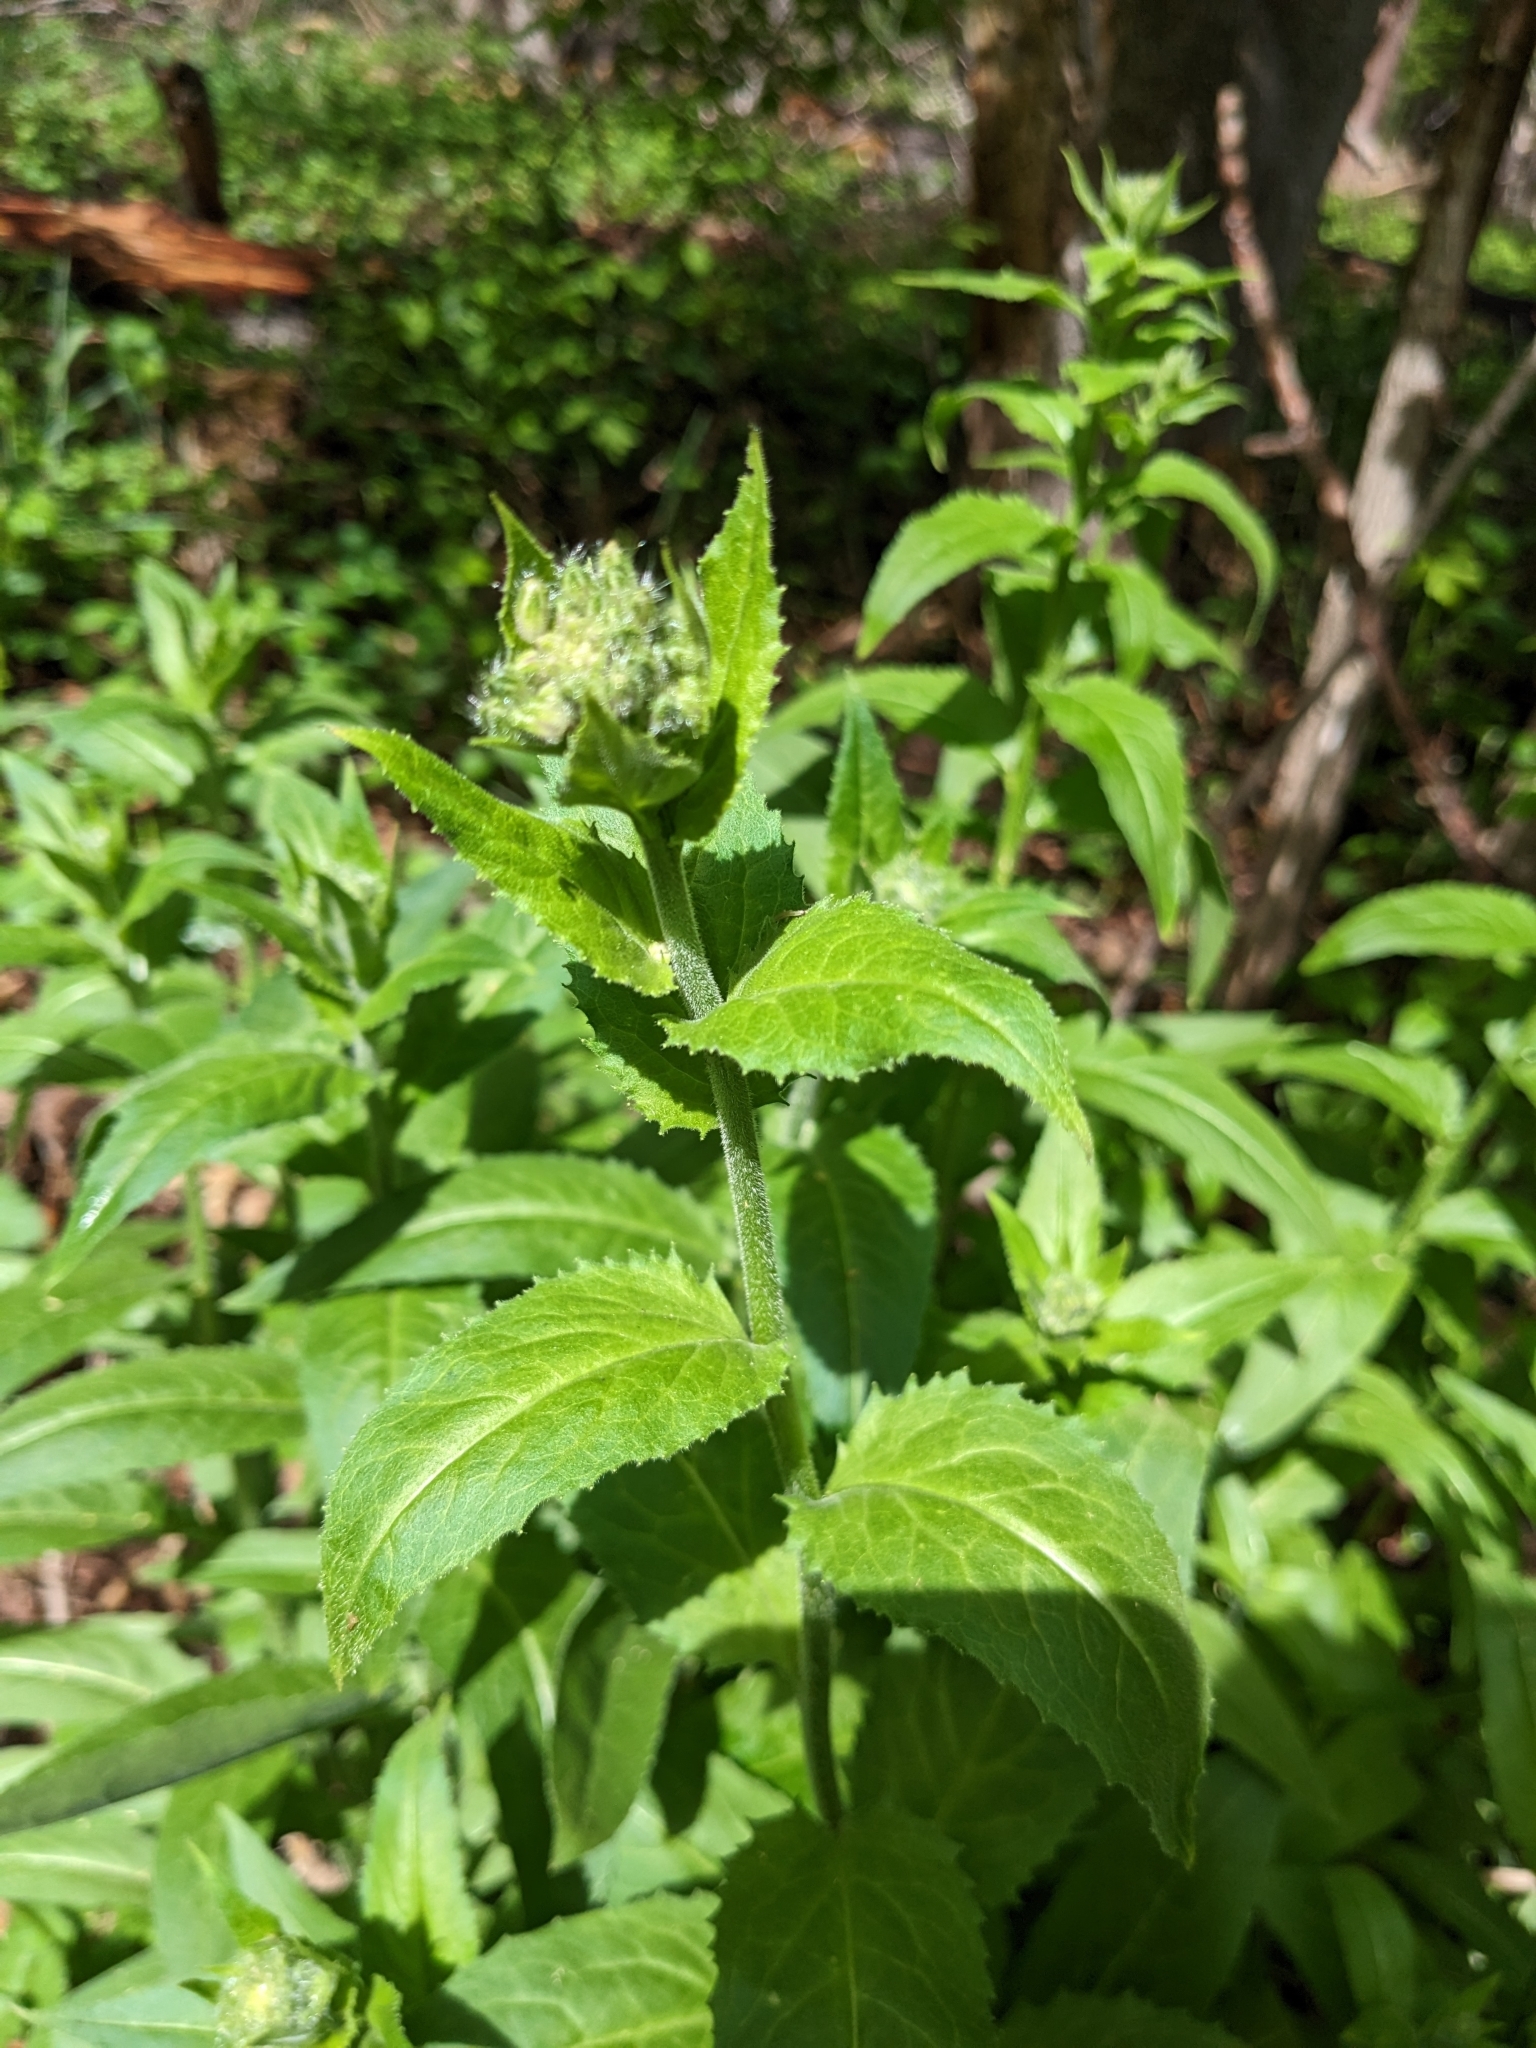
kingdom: Plantae
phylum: Tracheophyta
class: Magnoliopsida
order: Brassicales
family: Brassicaceae
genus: Hesperis
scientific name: Hesperis matronalis
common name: Dame's-violet
